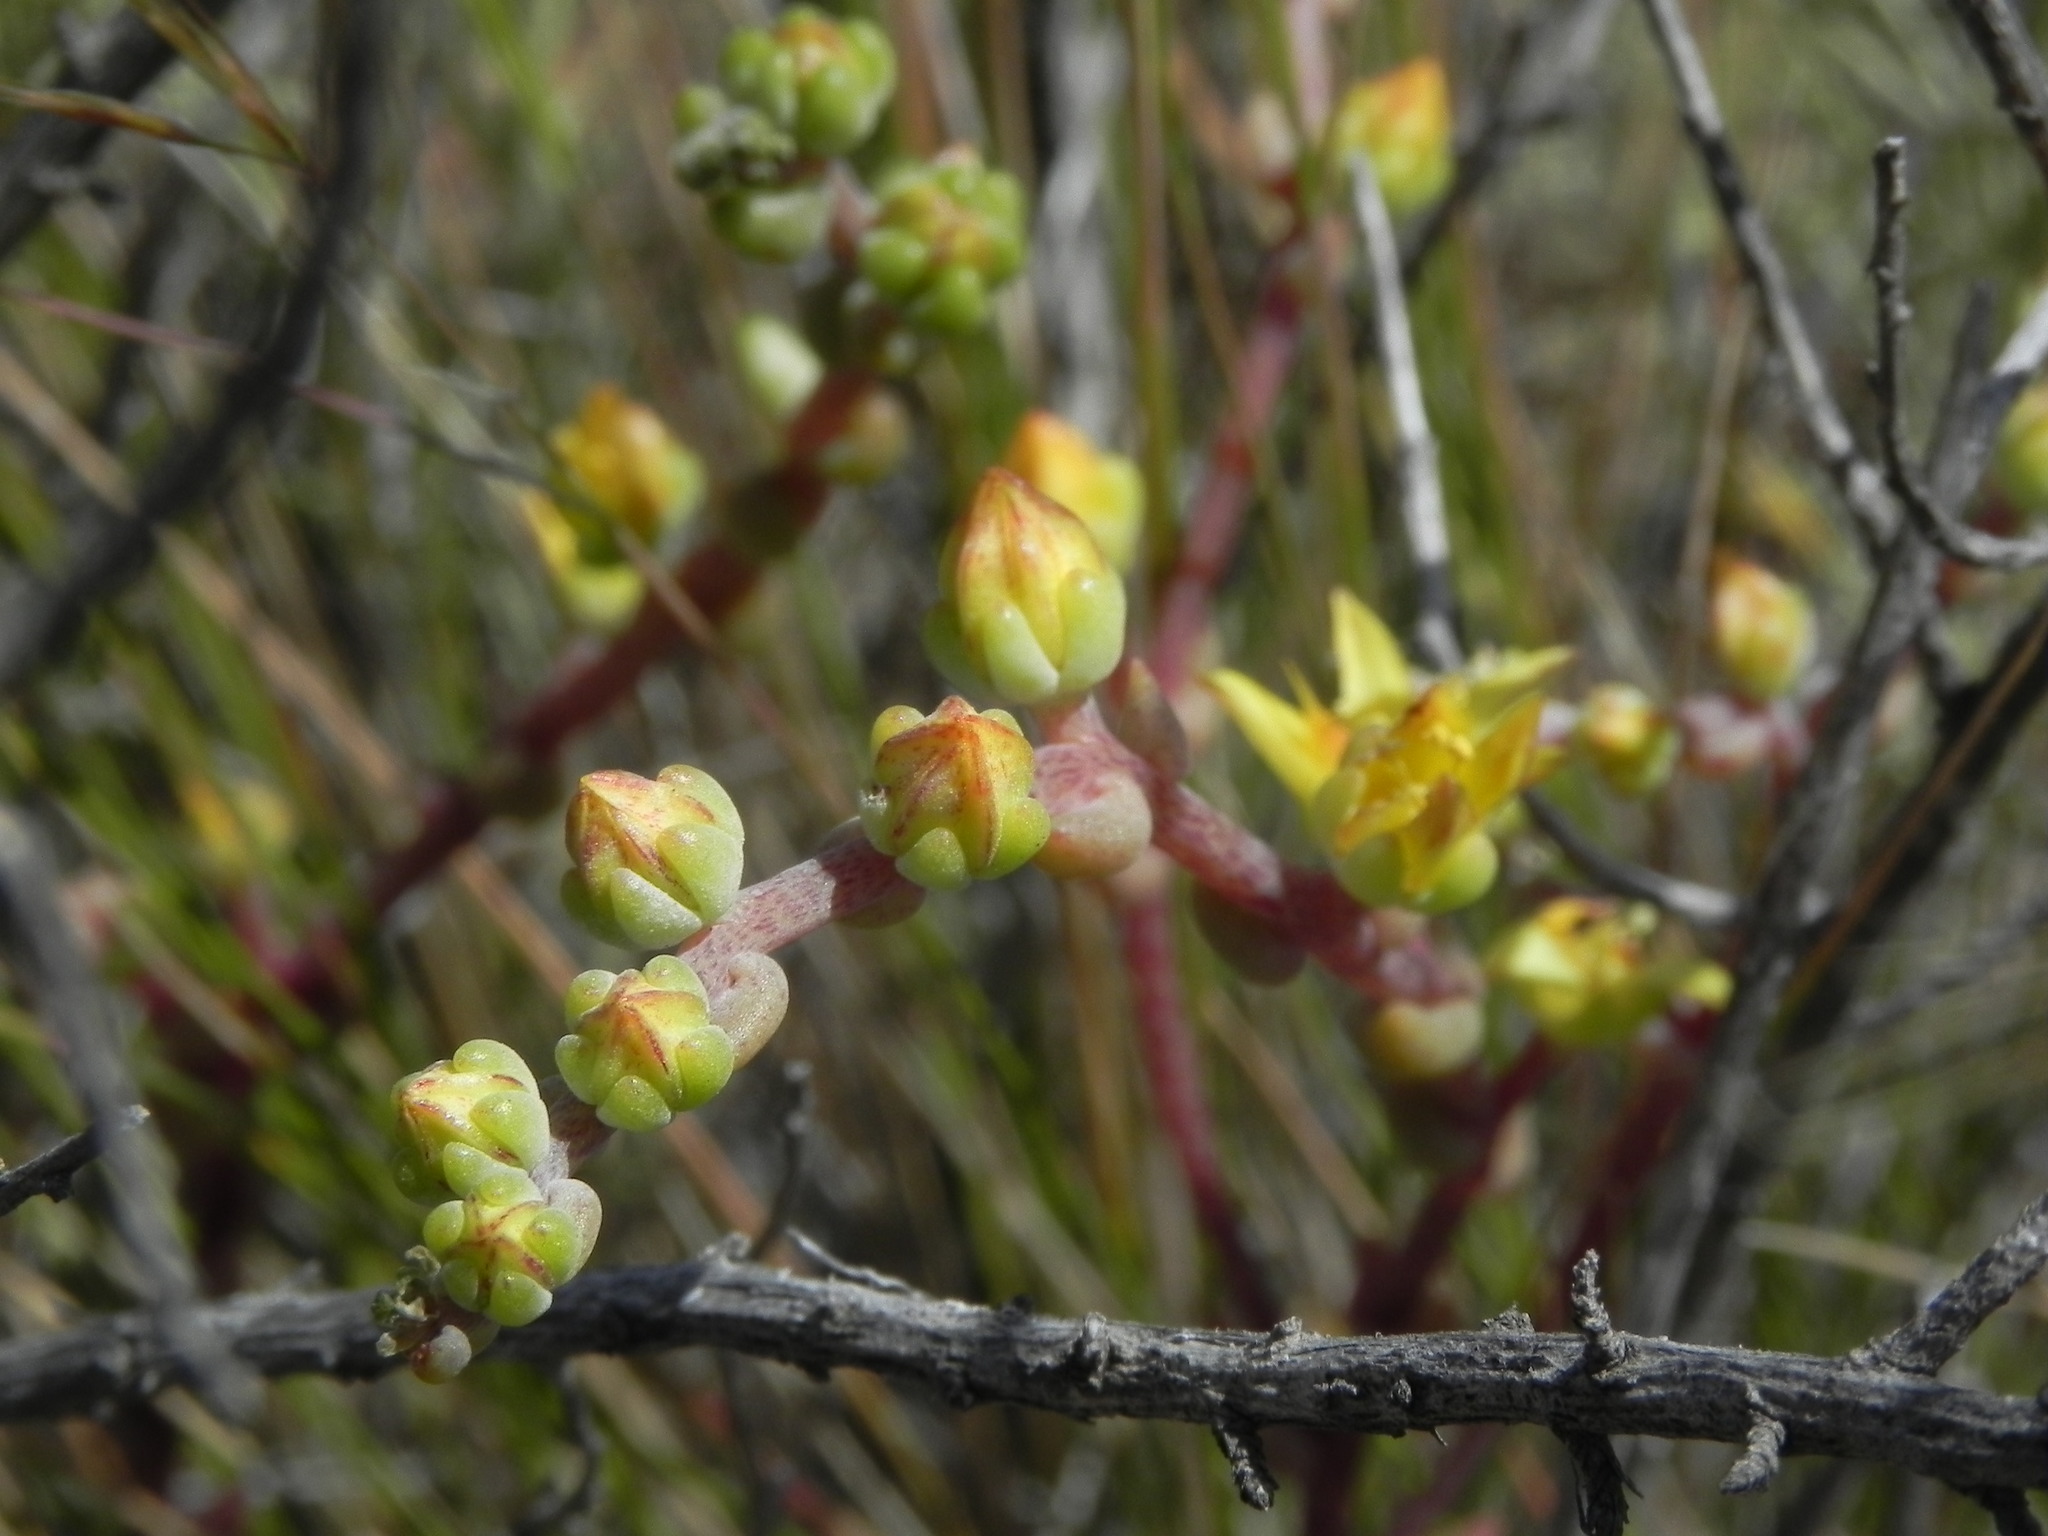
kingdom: Plantae
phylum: Tracheophyta
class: Magnoliopsida
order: Saxifragales
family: Crassulaceae
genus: Dudleya
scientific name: Dudleya variegata
